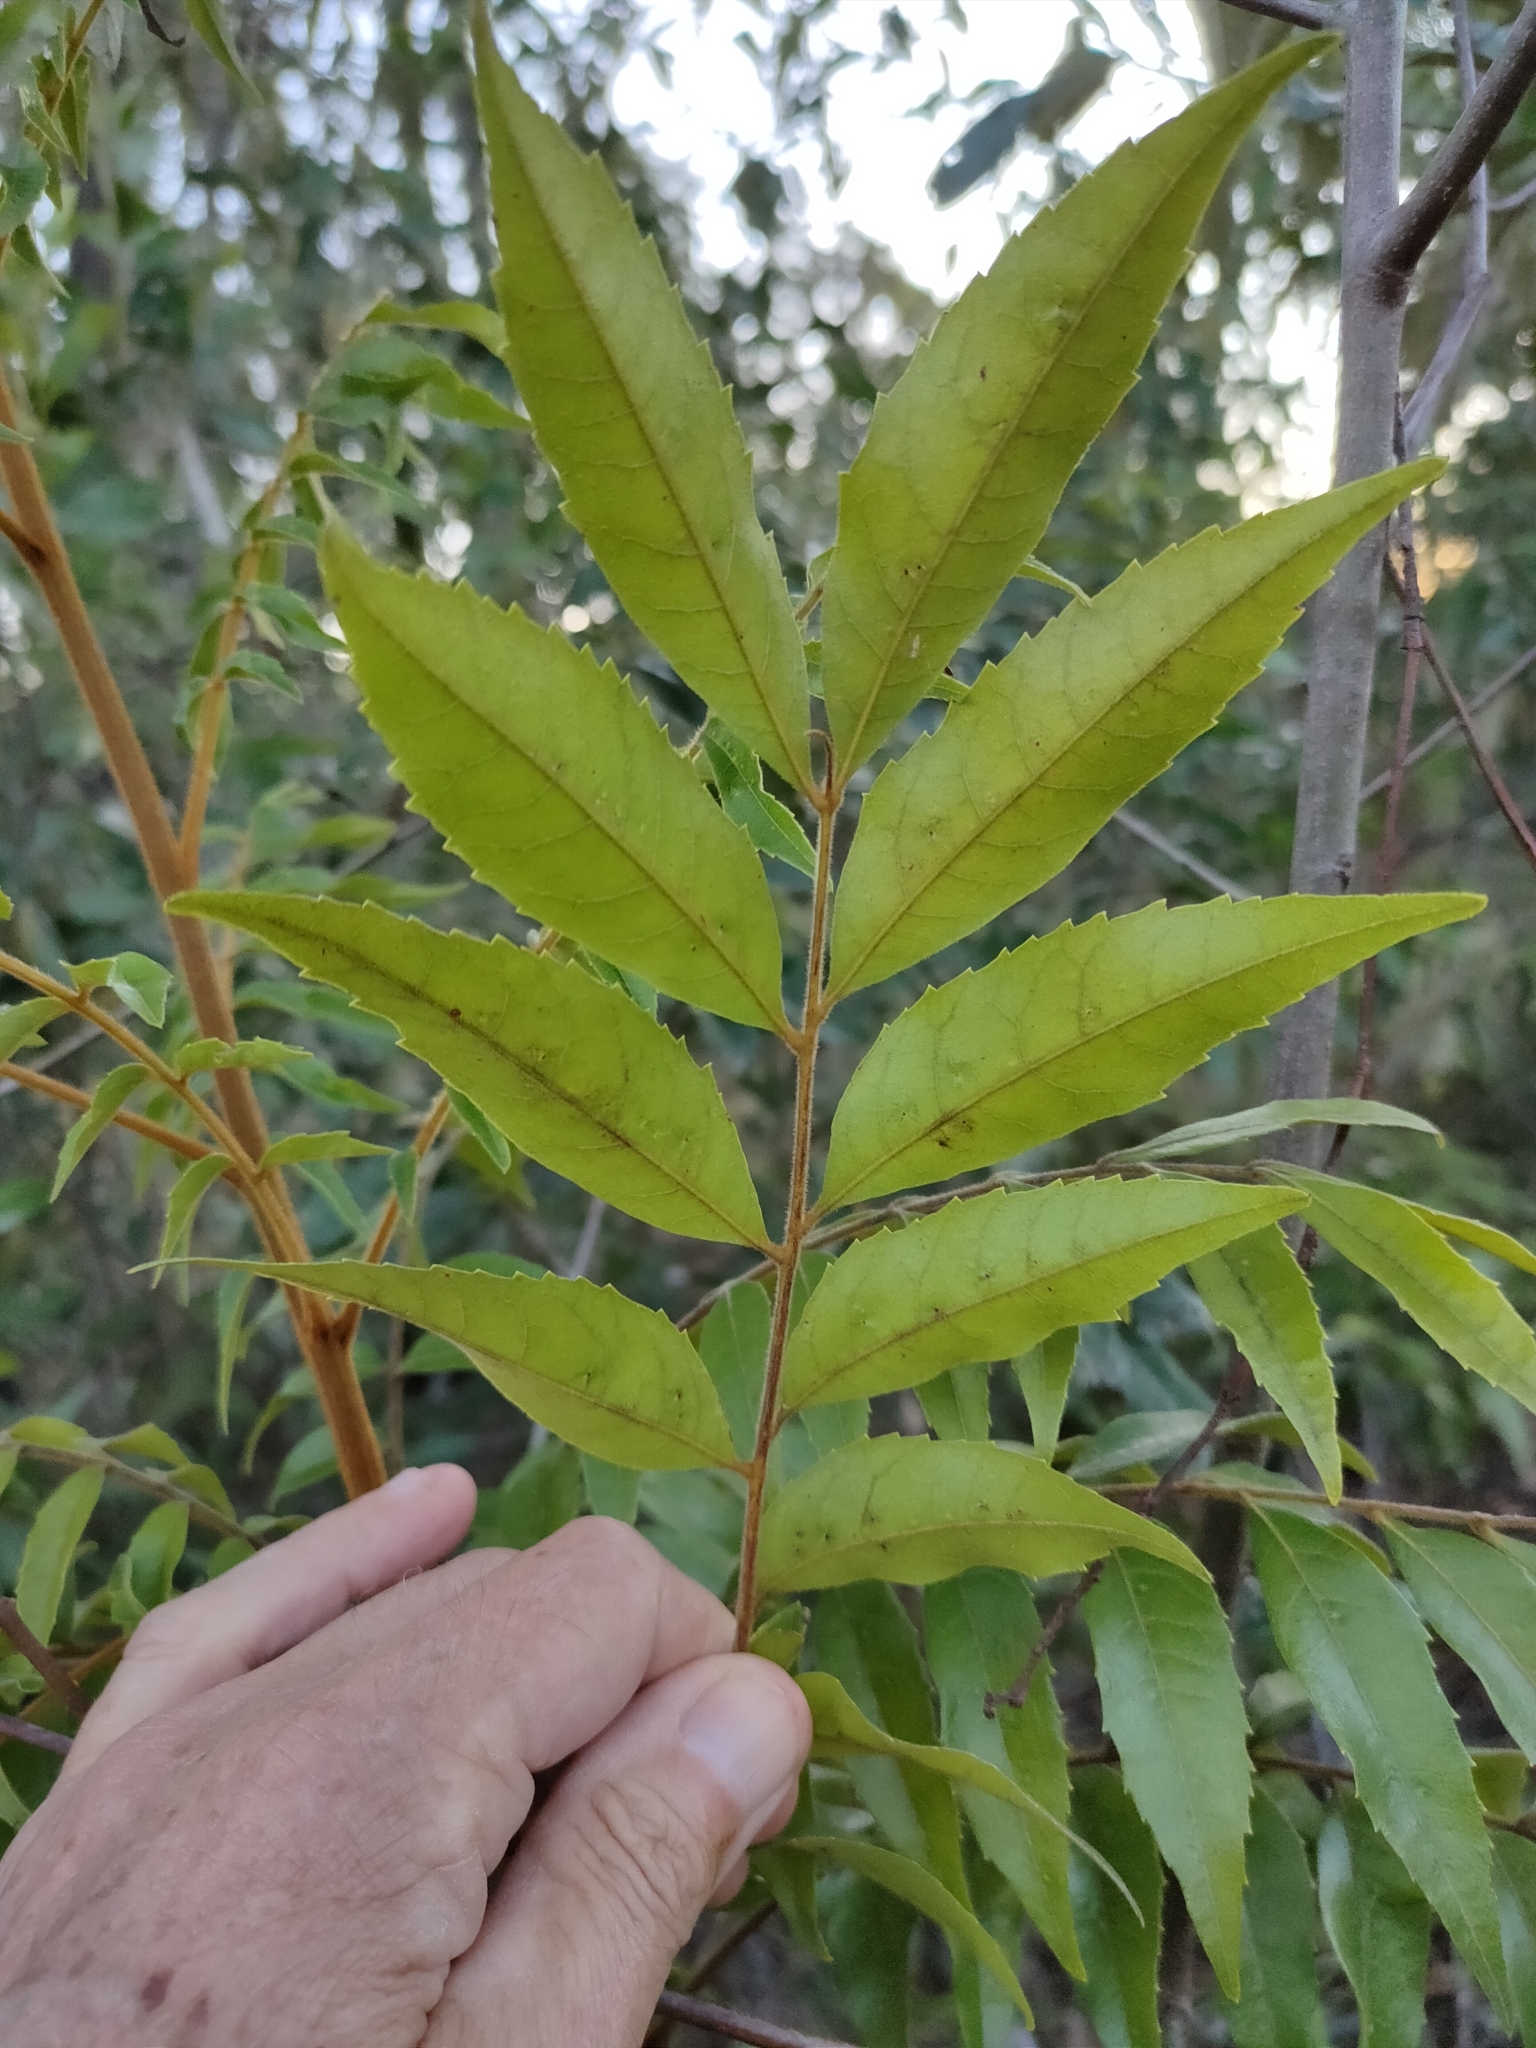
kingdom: Plantae
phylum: Tracheophyta
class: Magnoliopsida
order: Sapindales
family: Sapindaceae
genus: Jagera
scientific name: Jagera pseudorhus
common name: Fern-leaf-tamarind
